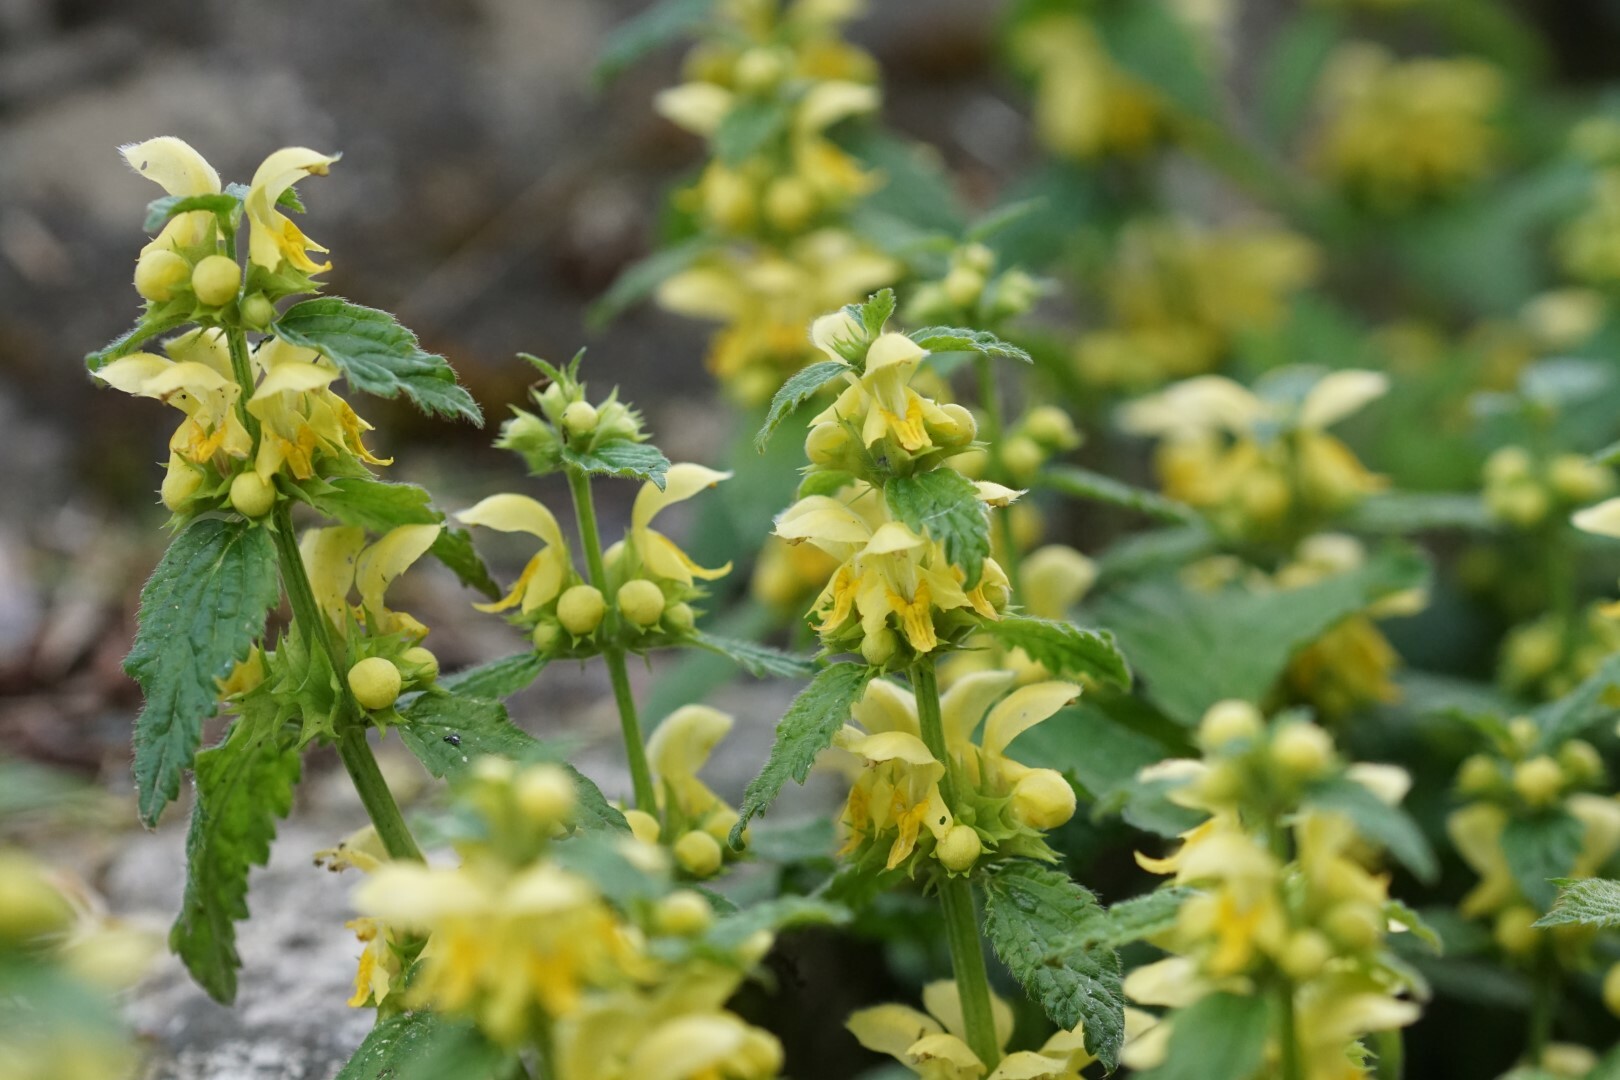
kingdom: Plantae
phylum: Tracheophyta
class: Magnoliopsida
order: Lamiales
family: Lamiaceae
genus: Lamium
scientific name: Lamium galeobdolon
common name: Yellow archangel
